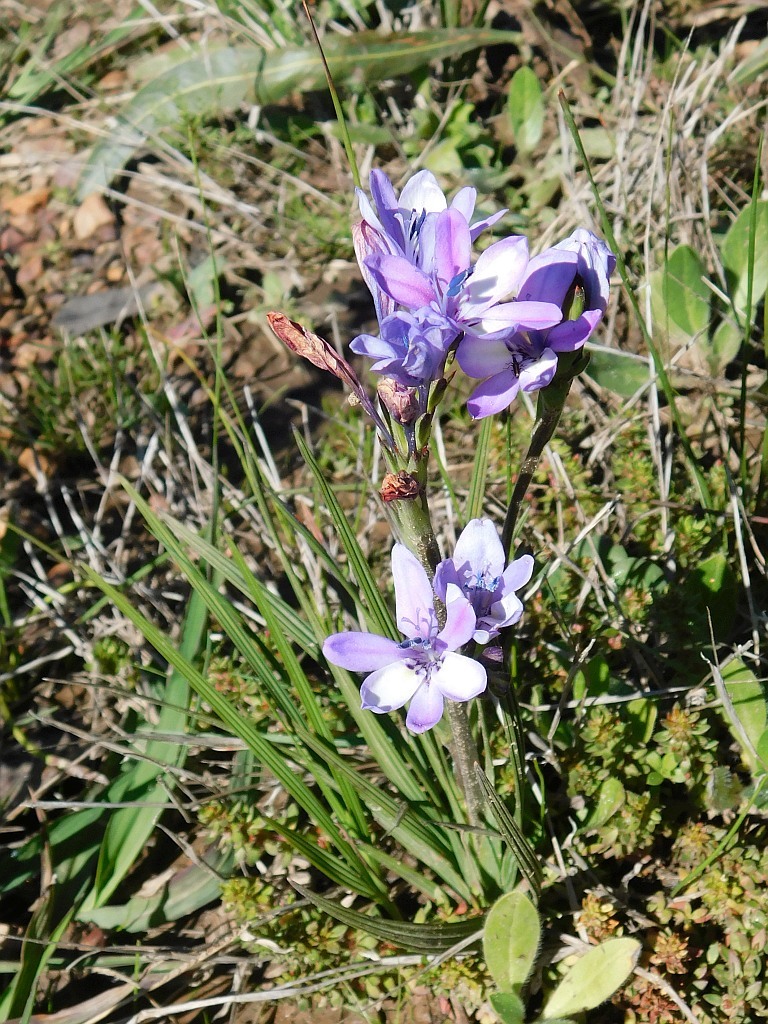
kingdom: Plantae
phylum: Tracheophyta
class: Liliopsida
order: Asparagales
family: Iridaceae
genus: Babiana
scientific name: Babiana nervosa
